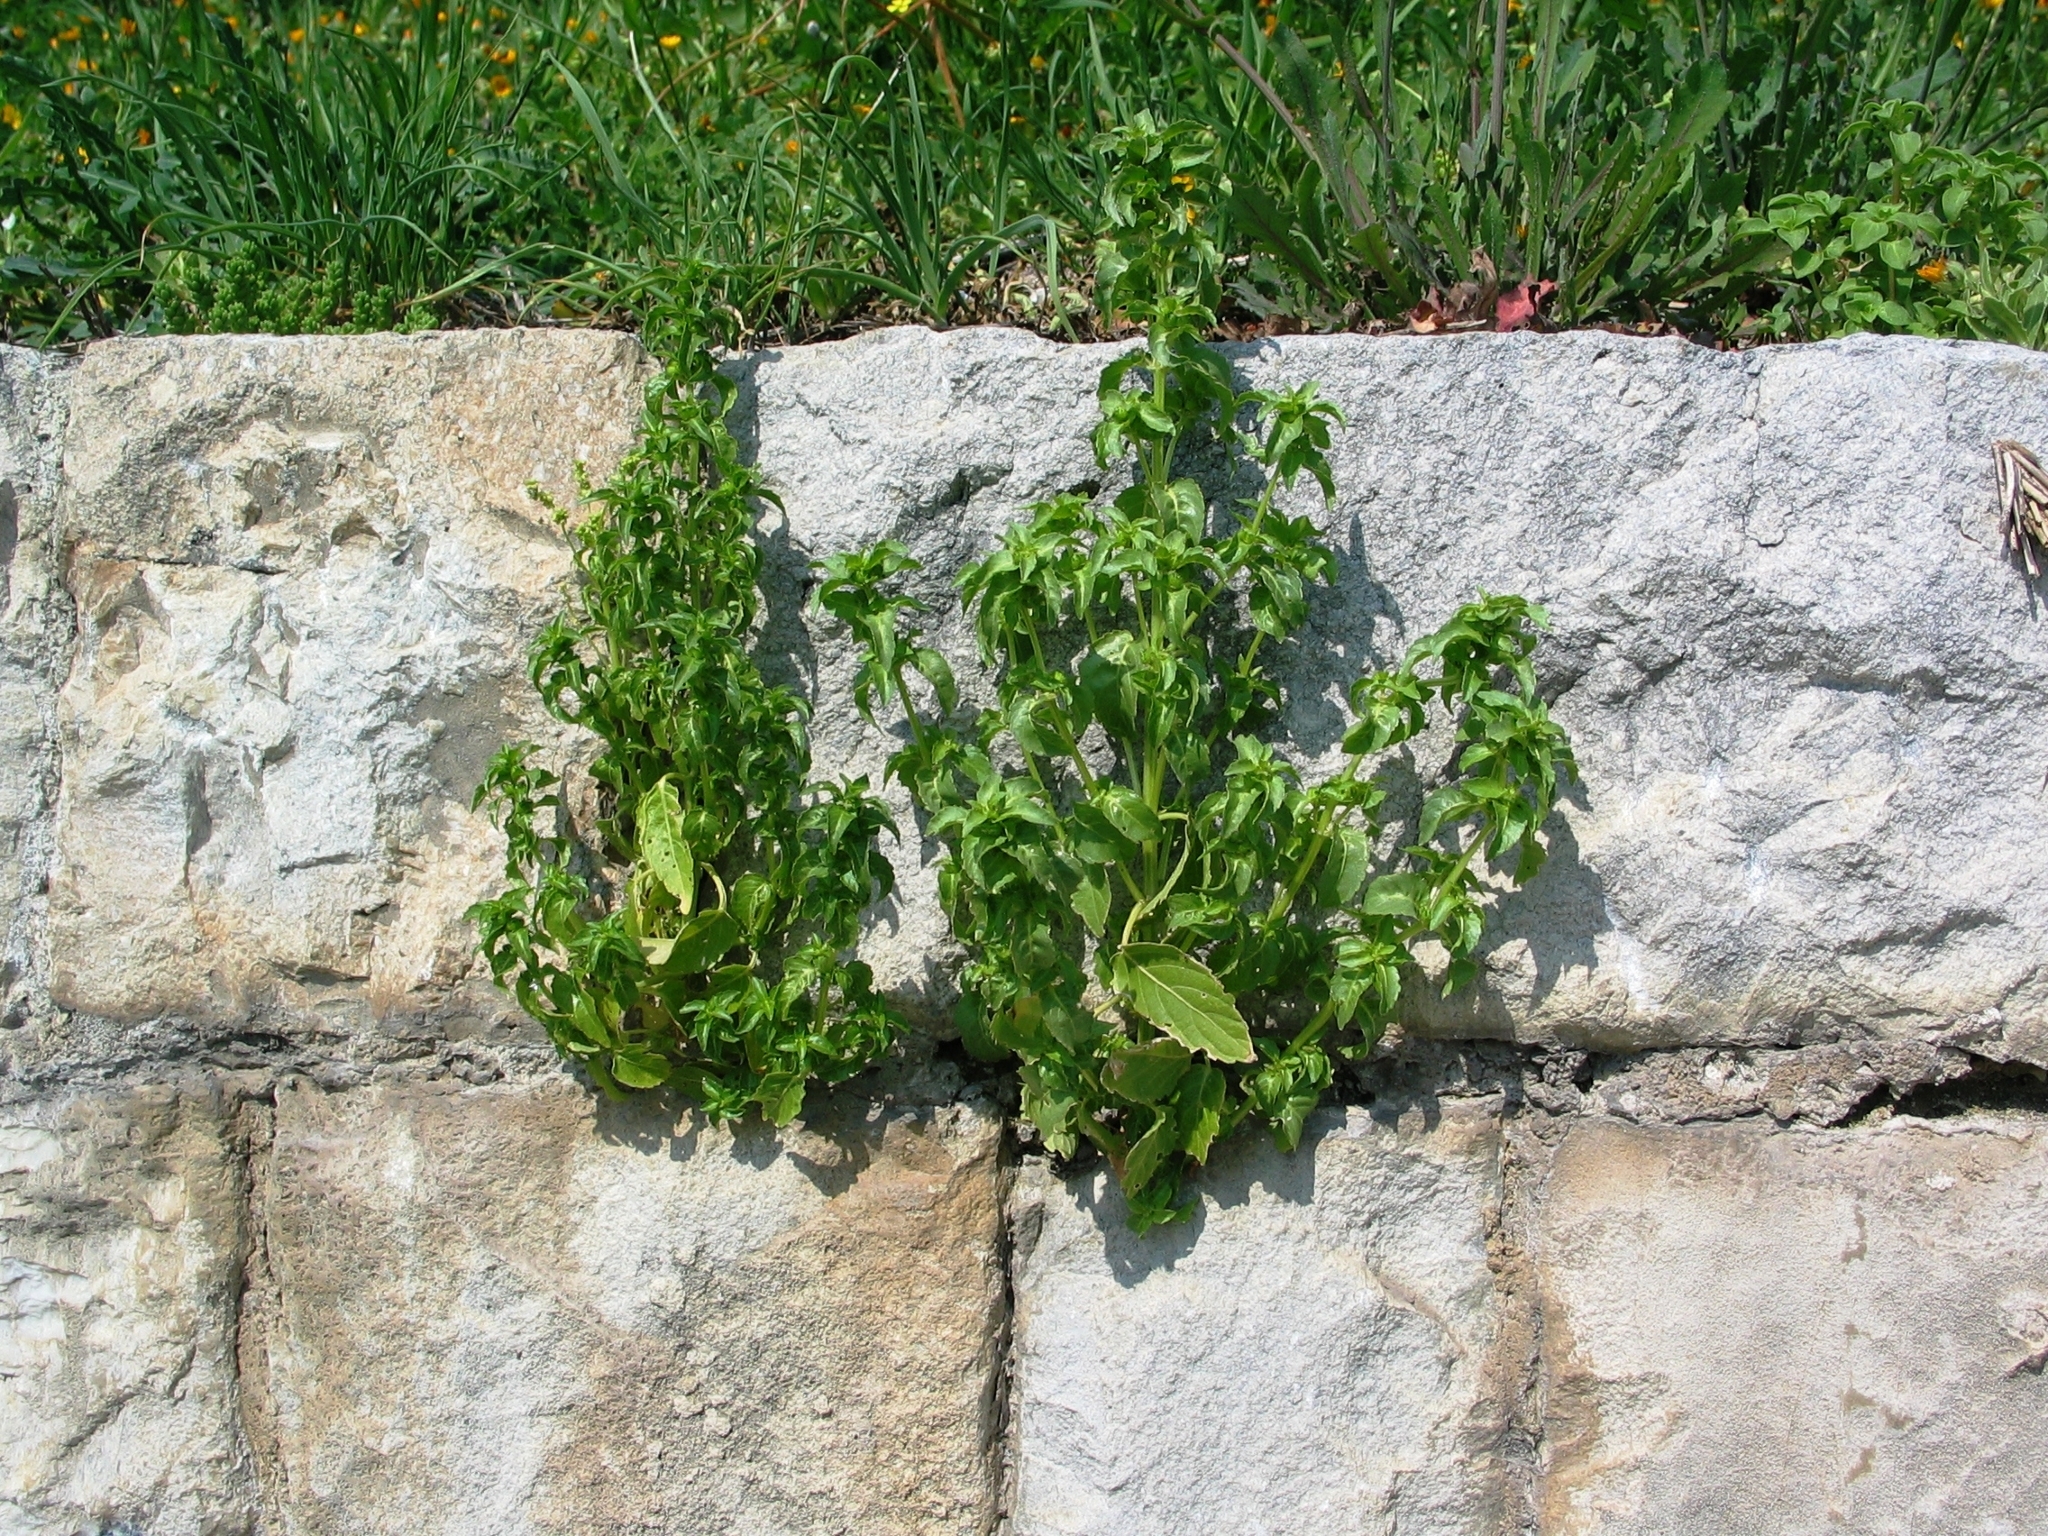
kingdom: Plantae
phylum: Tracheophyta
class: Magnoliopsida
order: Malpighiales
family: Euphorbiaceae
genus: Mercurialis
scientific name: Mercurialis annua
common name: Annual mercury
